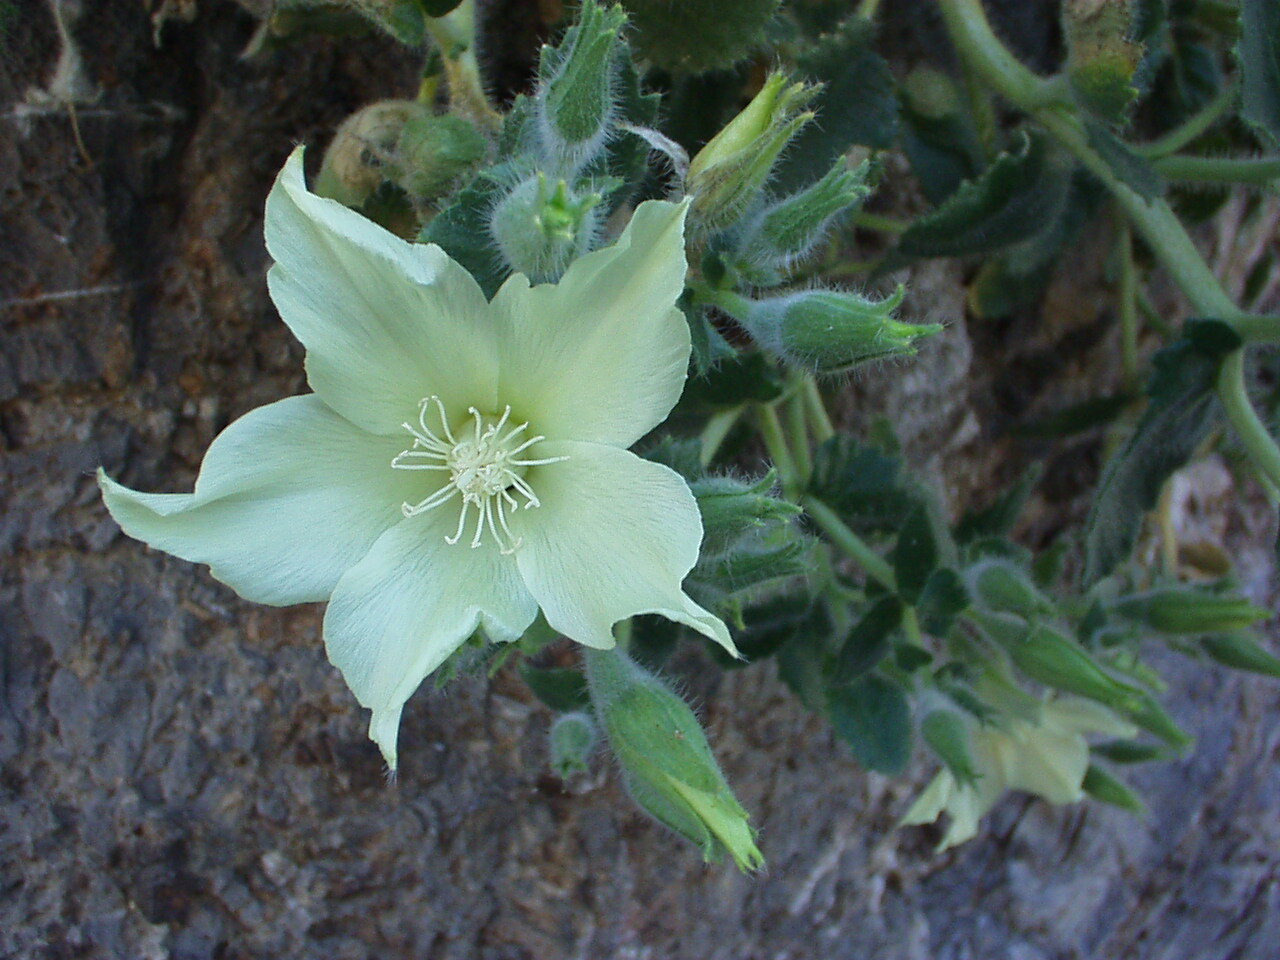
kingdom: Plantae
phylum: Tracheophyta
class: Magnoliopsida
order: Cornales
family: Loasaceae
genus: Eucnide
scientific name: Eucnide urens
